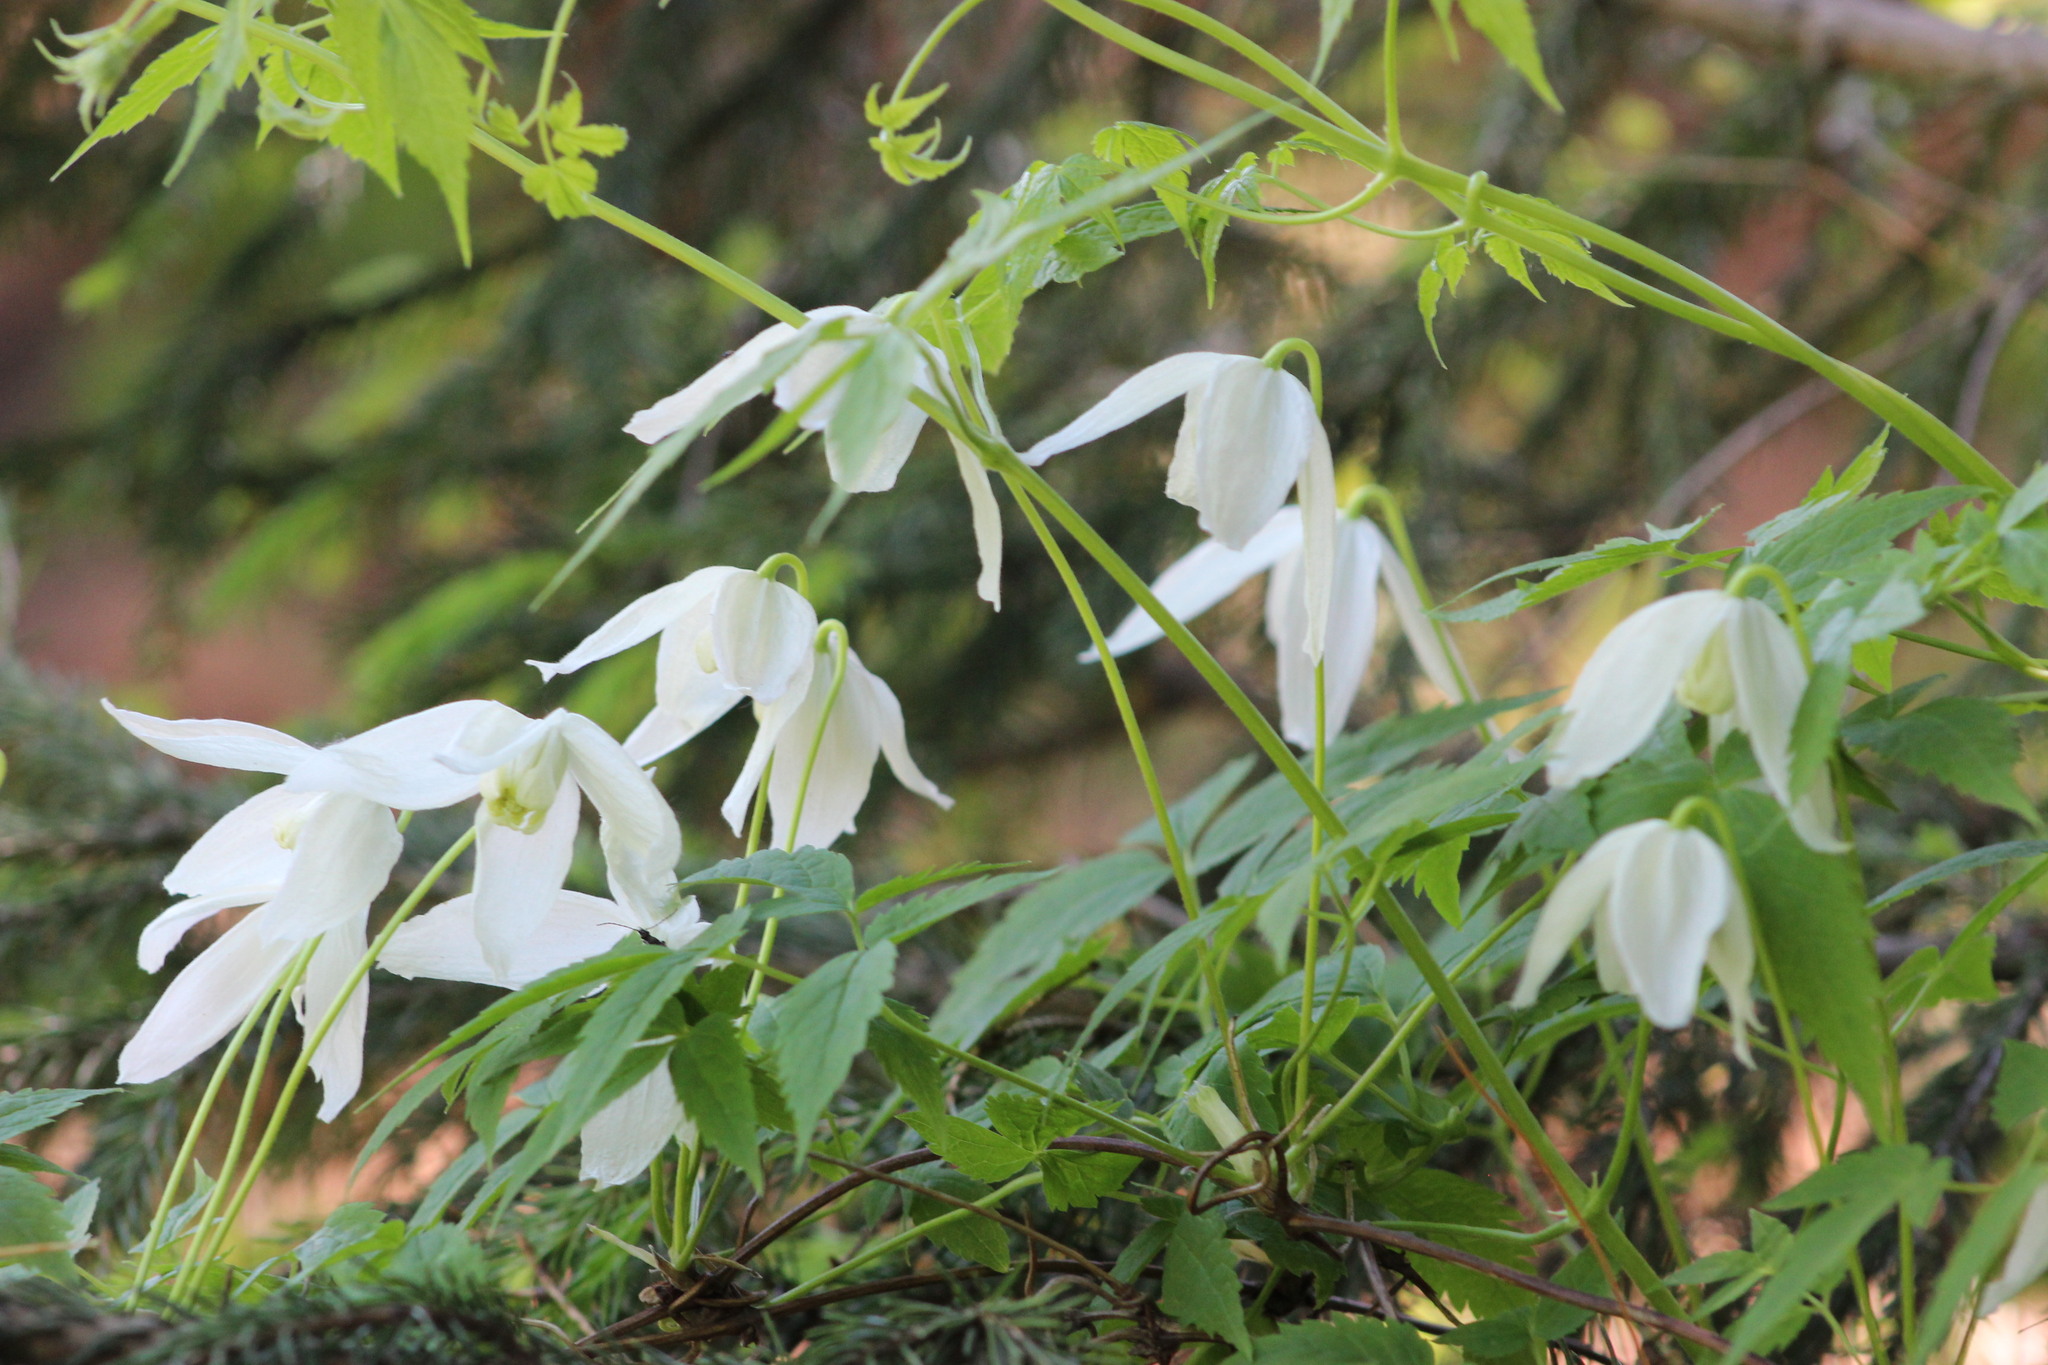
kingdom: Plantae
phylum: Tracheophyta
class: Magnoliopsida
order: Ranunculales
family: Ranunculaceae
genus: Clematis
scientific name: Clematis sibirica
